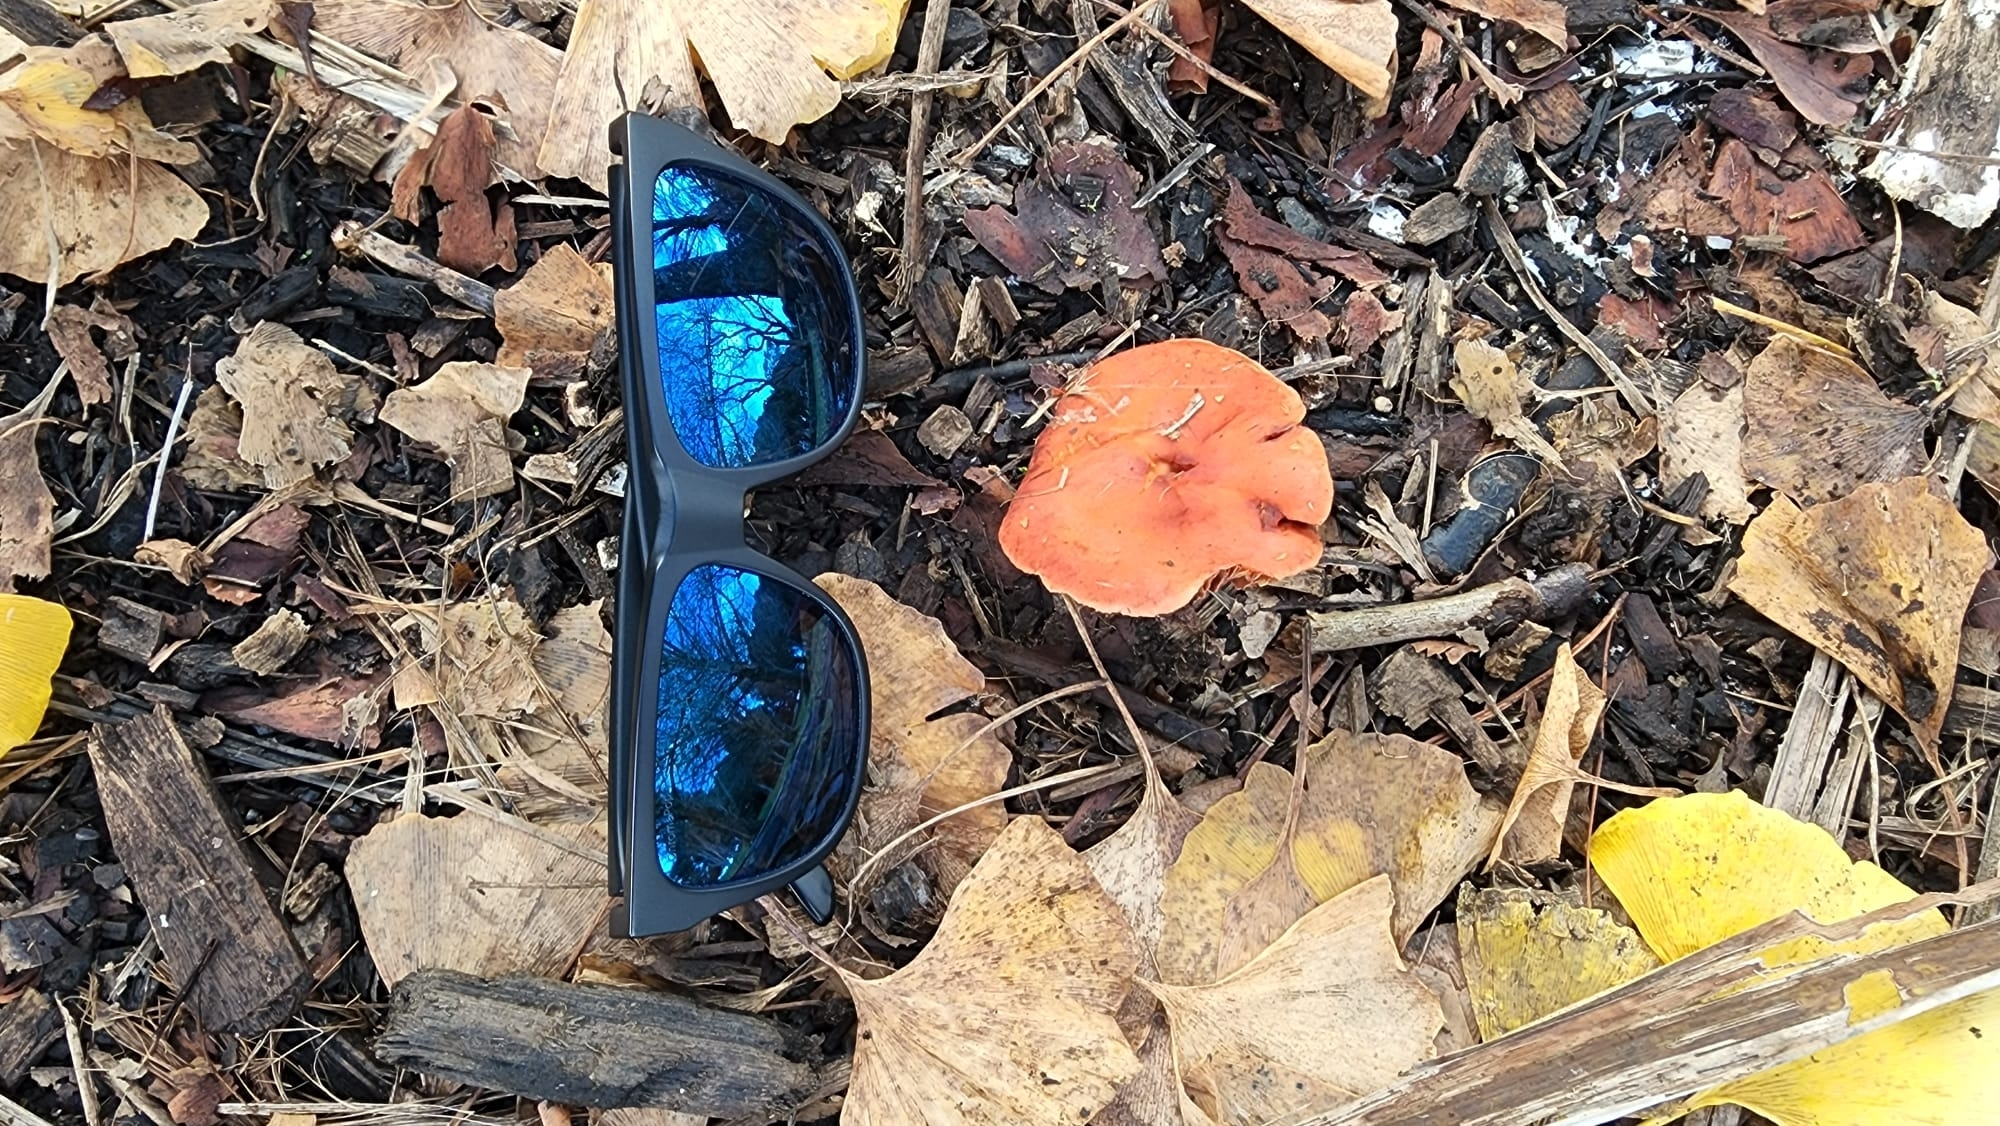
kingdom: Fungi
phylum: Basidiomycota
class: Agaricomycetes
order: Agaricales
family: Strophariaceae
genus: Leratiomyces
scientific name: Leratiomyces ceres
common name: Redlead roundhead
